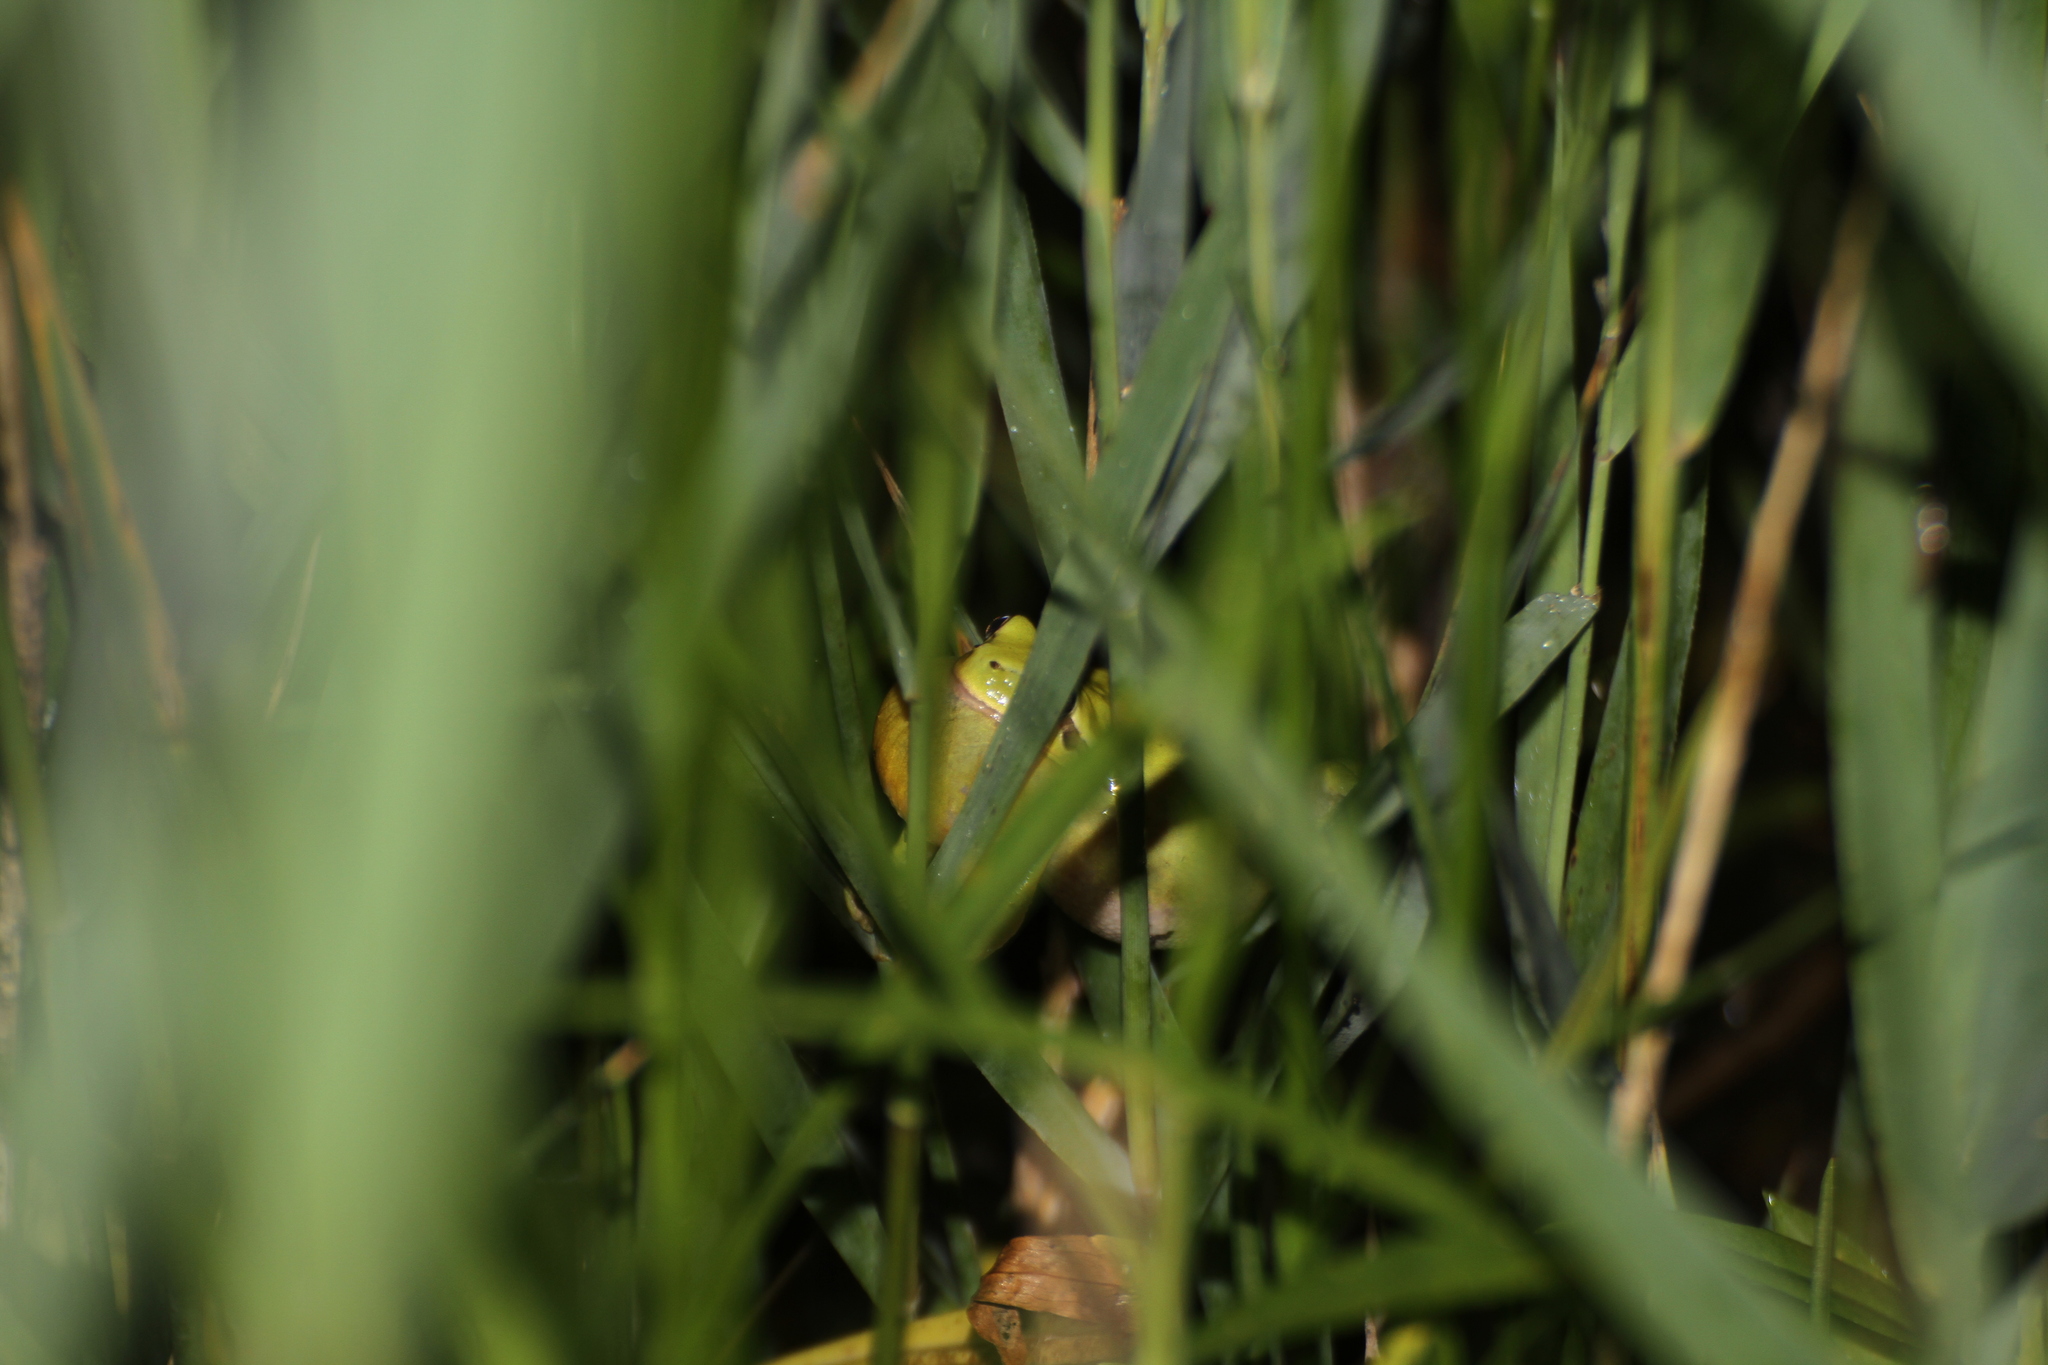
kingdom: Animalia
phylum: Chordata
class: Amphibia
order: Anura
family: Hylidae
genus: Hyla
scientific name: Hyla meridionalis
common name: Stripeless tree frog
